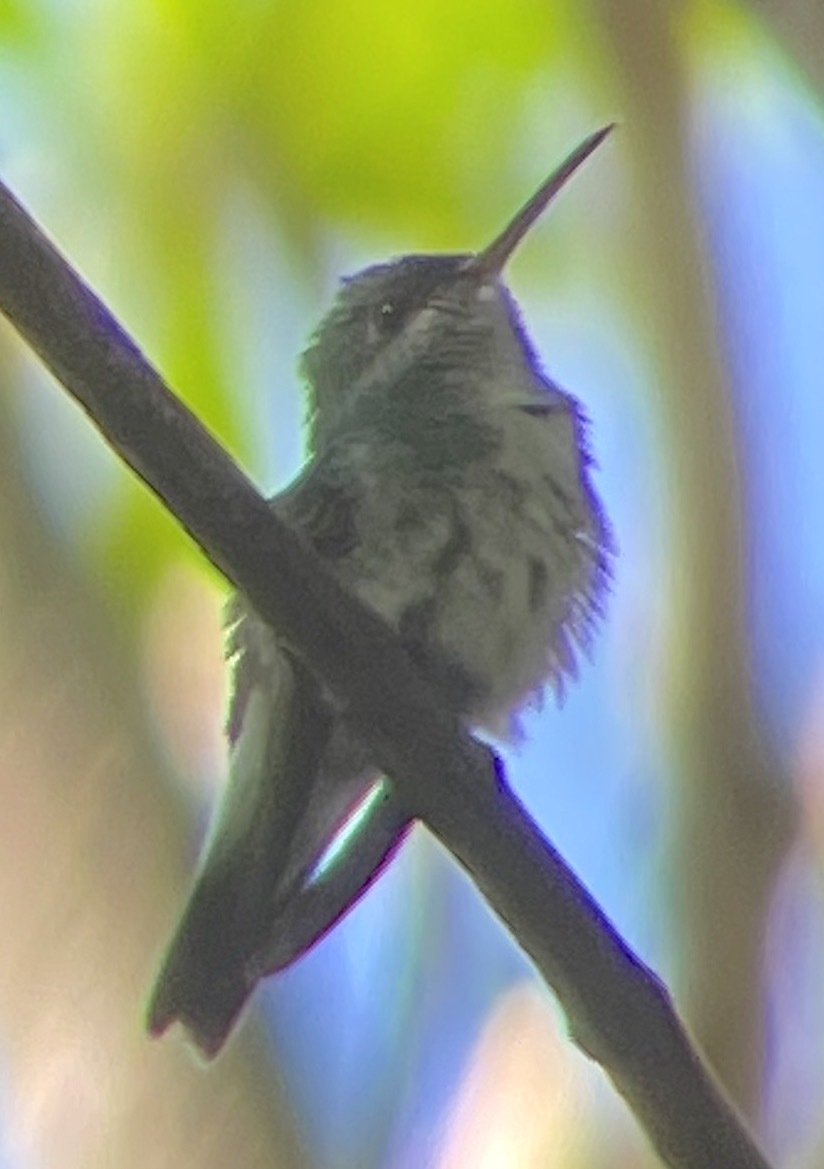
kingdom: Animalia
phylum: Chordata
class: Aves
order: Apodiformes
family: Trochilidae
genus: Amazilia
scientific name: Amazilia boucardi
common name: Mangrove hummingbird
